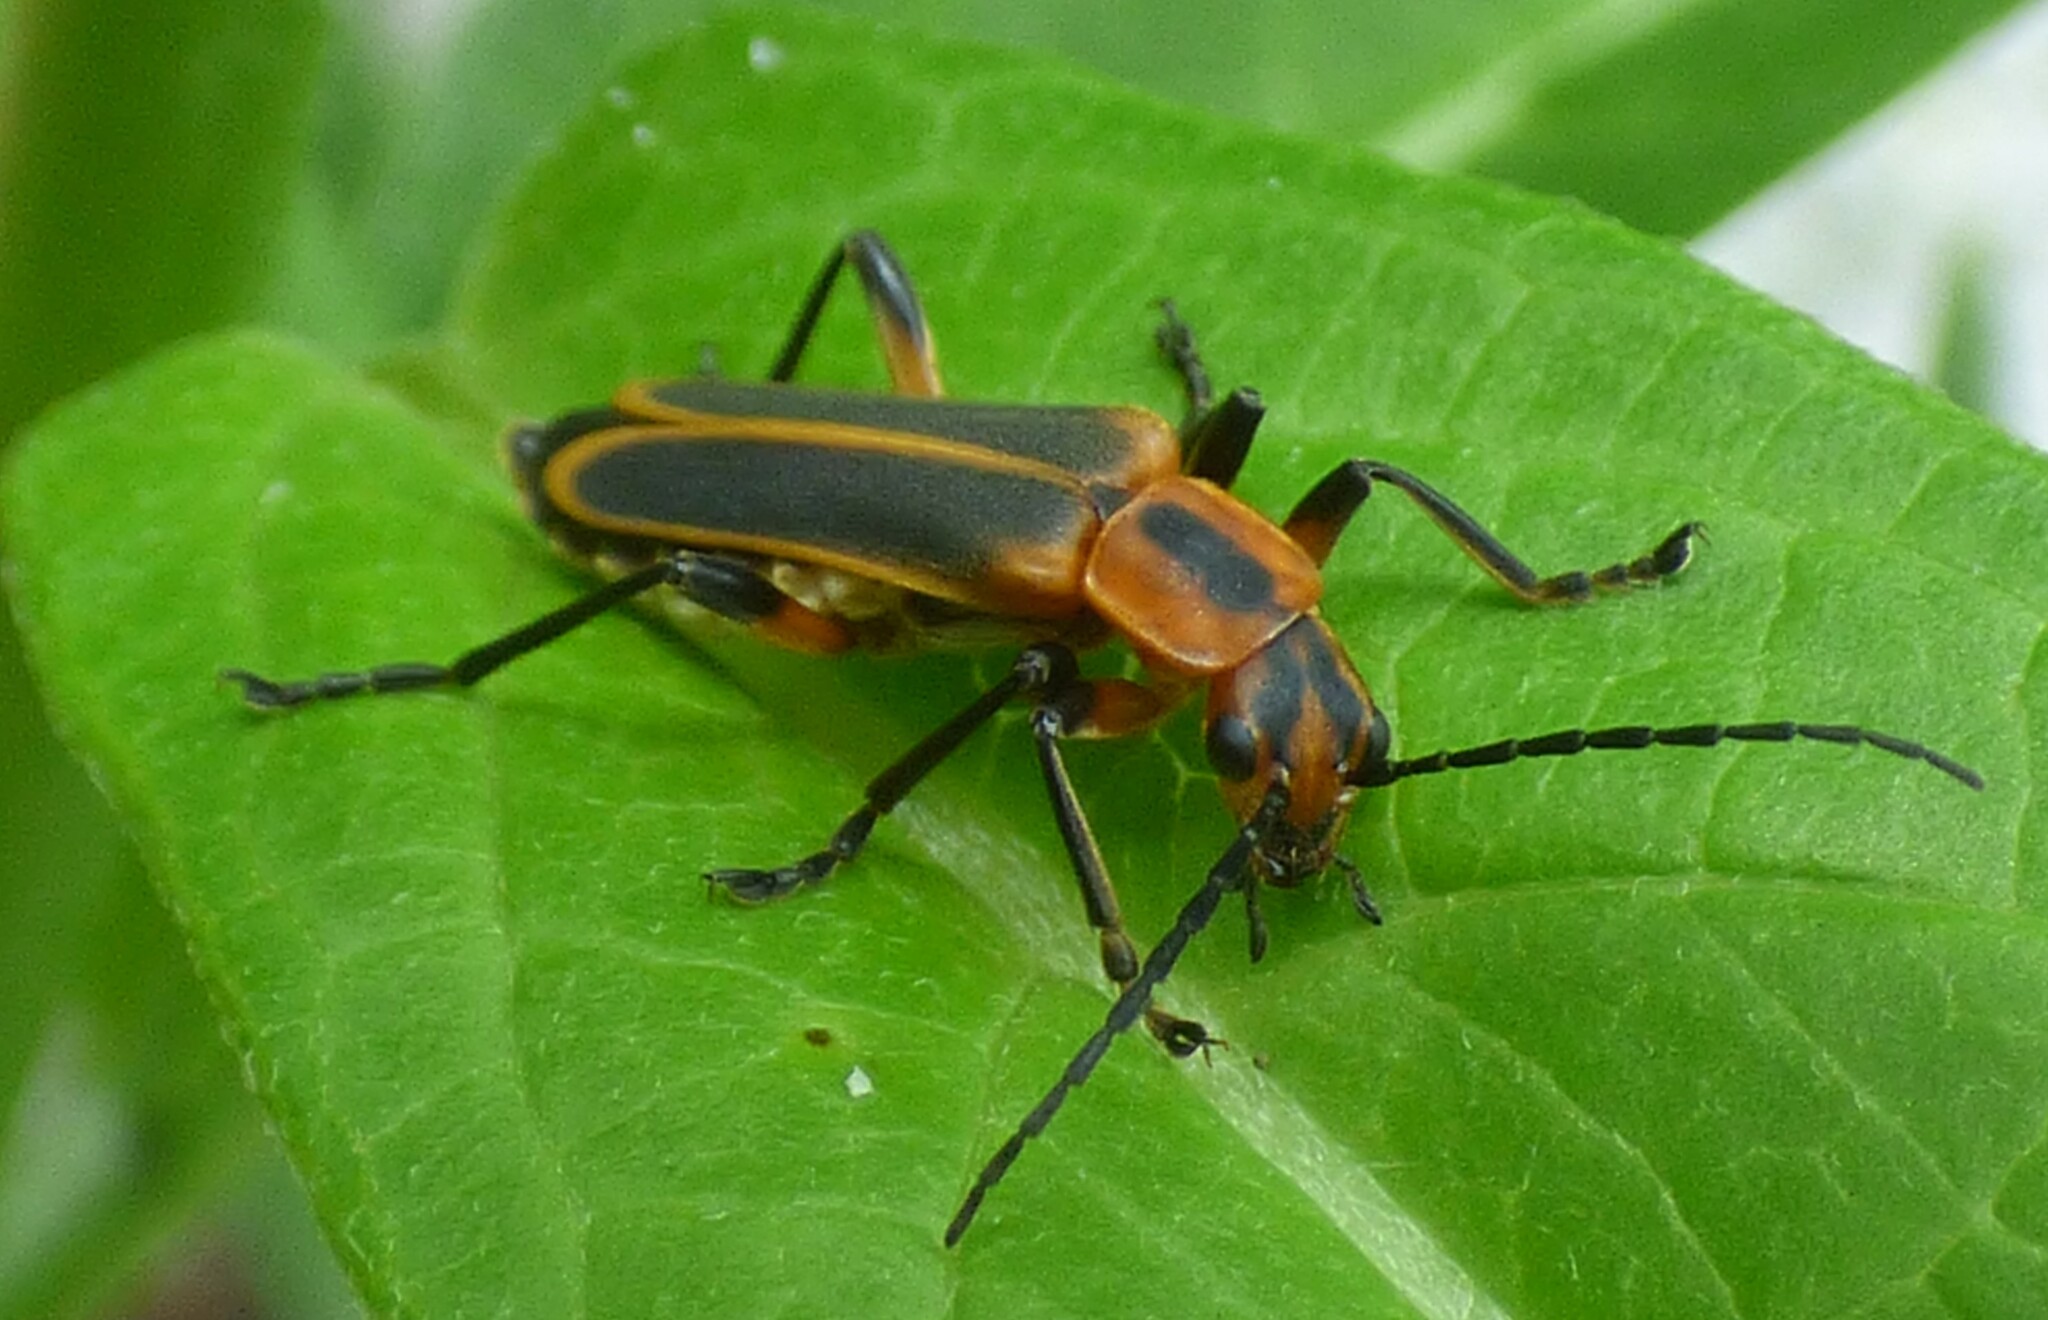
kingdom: Animalia
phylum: Arthropoda
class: Insecta
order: Coleoptera
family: Cantharidae
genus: Chauliognathus
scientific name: Chauliognathus marginatus
